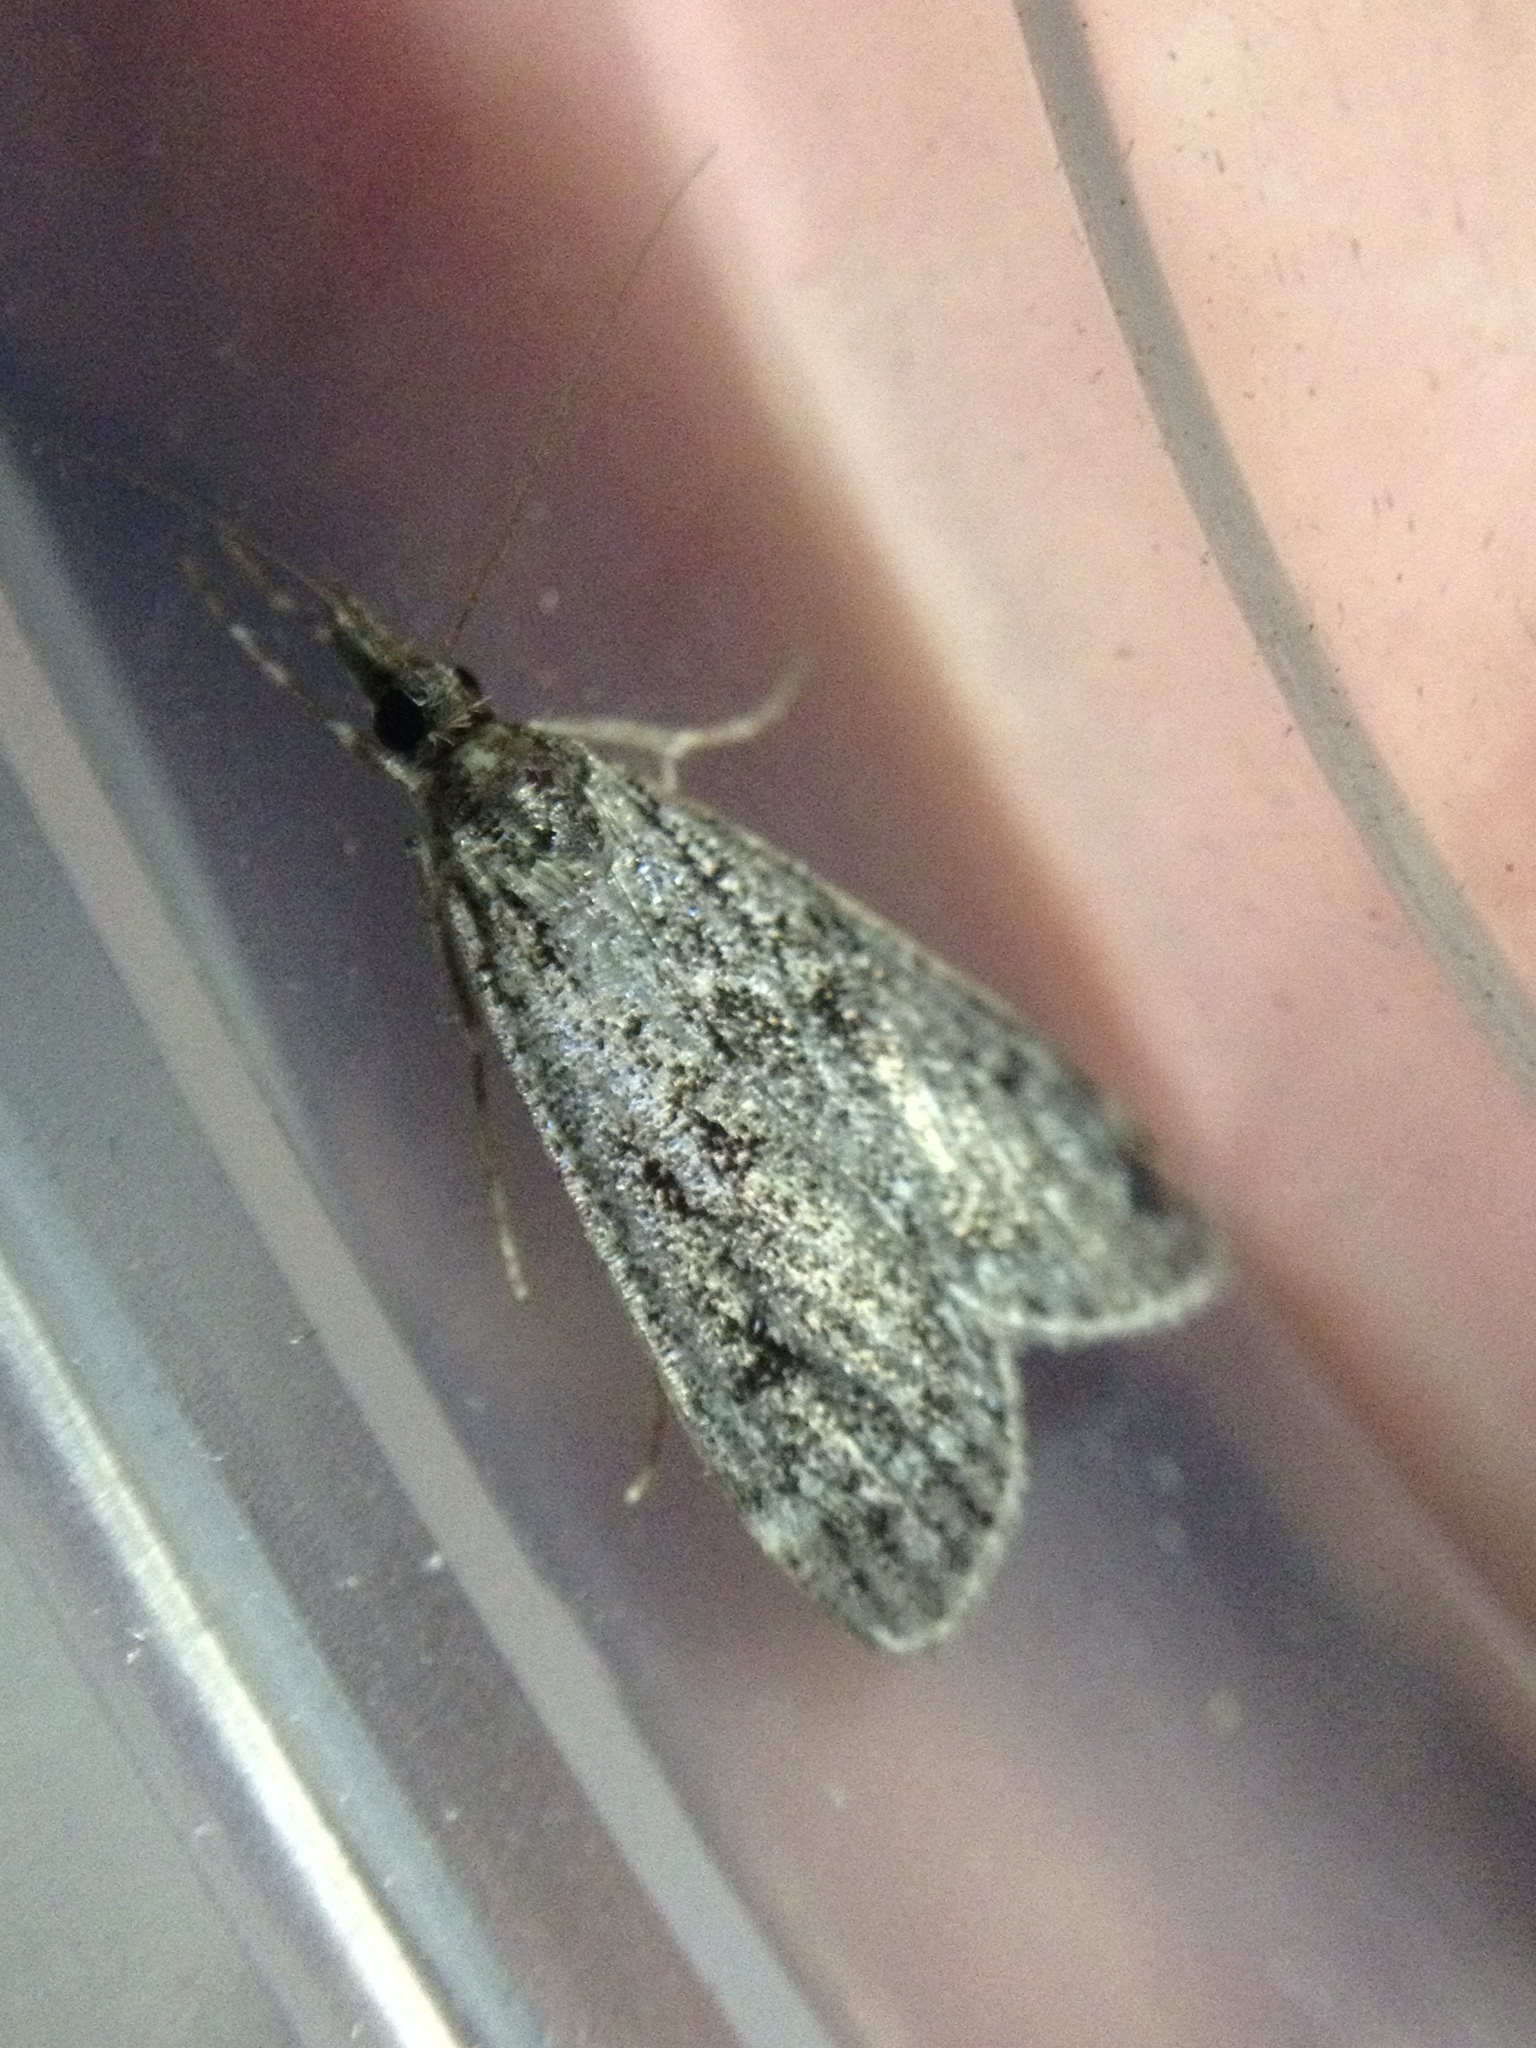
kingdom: Animalia
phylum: Arthropoda
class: Insecta
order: Lepidoptera
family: Crambidae
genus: Eudonia
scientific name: Eudonia truncicolella
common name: Ground-moss grey
